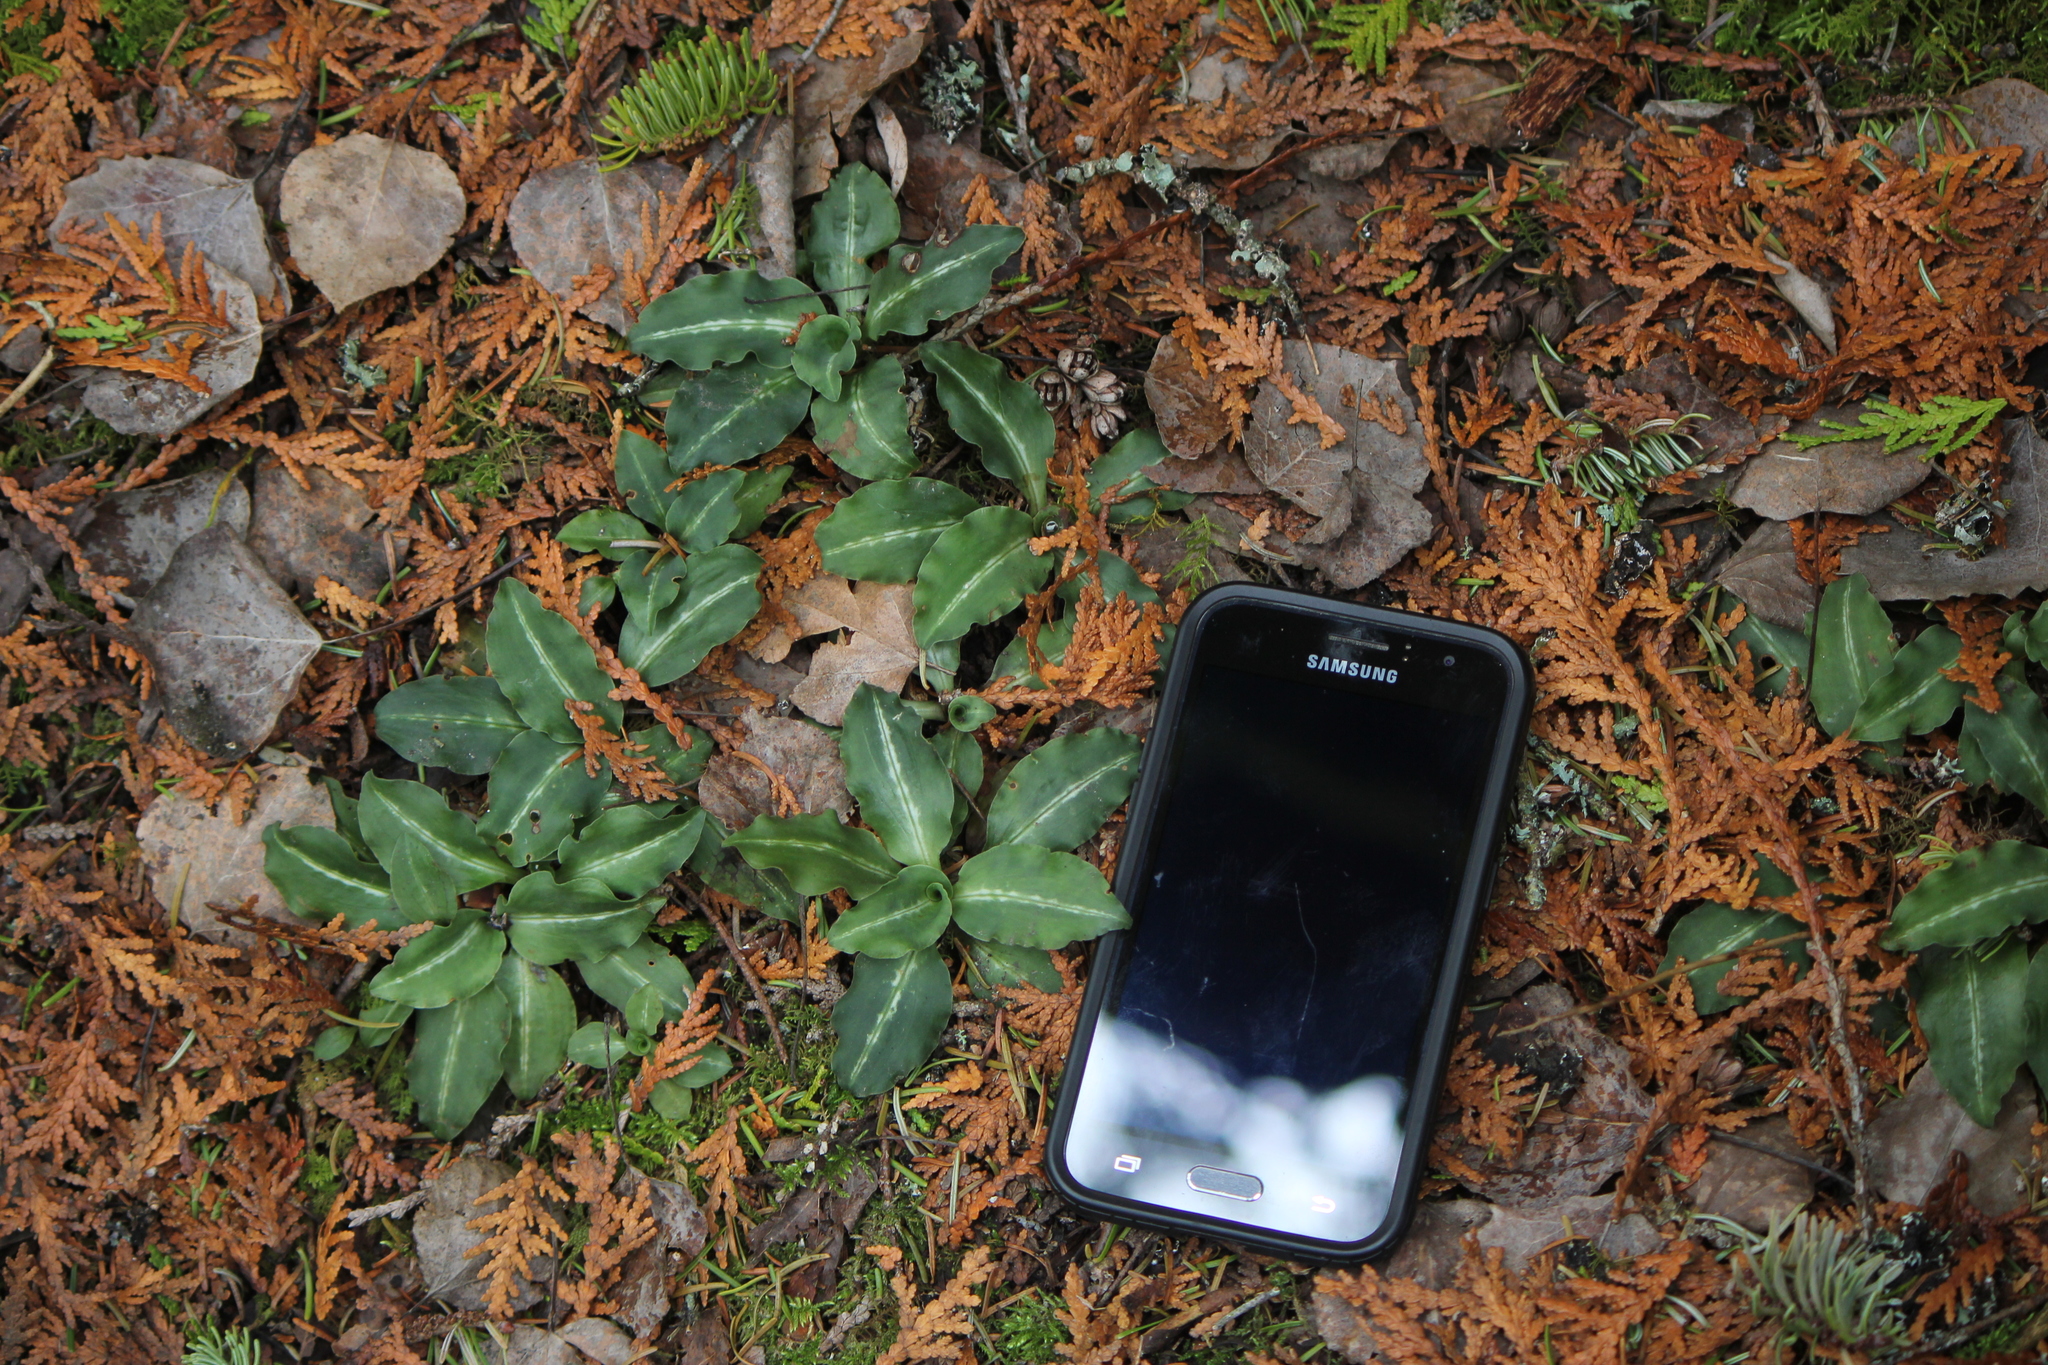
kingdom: Plantae
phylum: Tracheophyta
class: Liliopsida
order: Asparagales
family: Orchidaceae
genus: Goodyera
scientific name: Goodyera oblongifolia
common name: Giant rattlesnake-plantain
